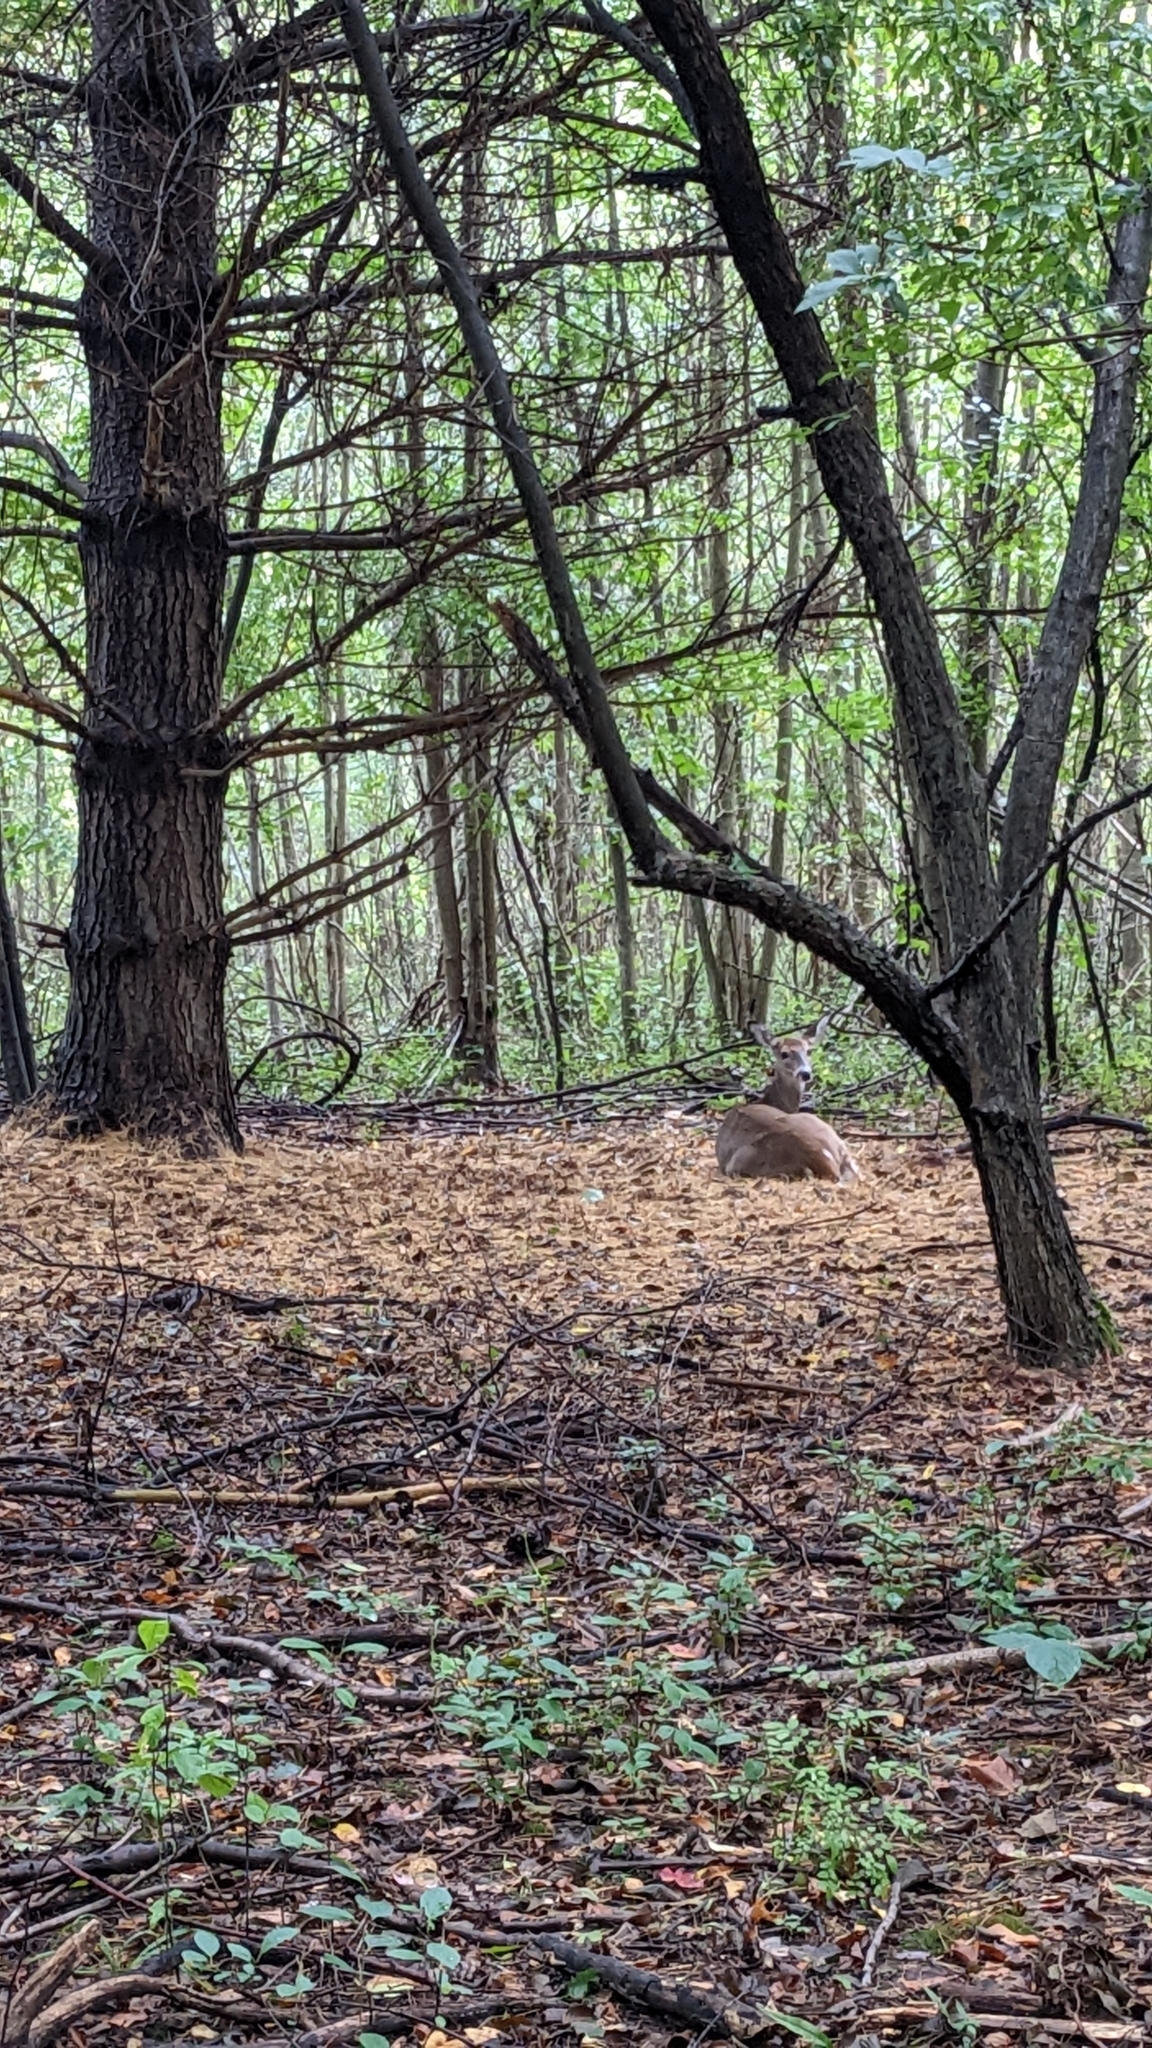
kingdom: Animalia
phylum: Chordata
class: Mammalia
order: Artiodactyla
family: Cervidae
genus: Odocoileus
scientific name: Odocoileus virginianus
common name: White-tailed deer
